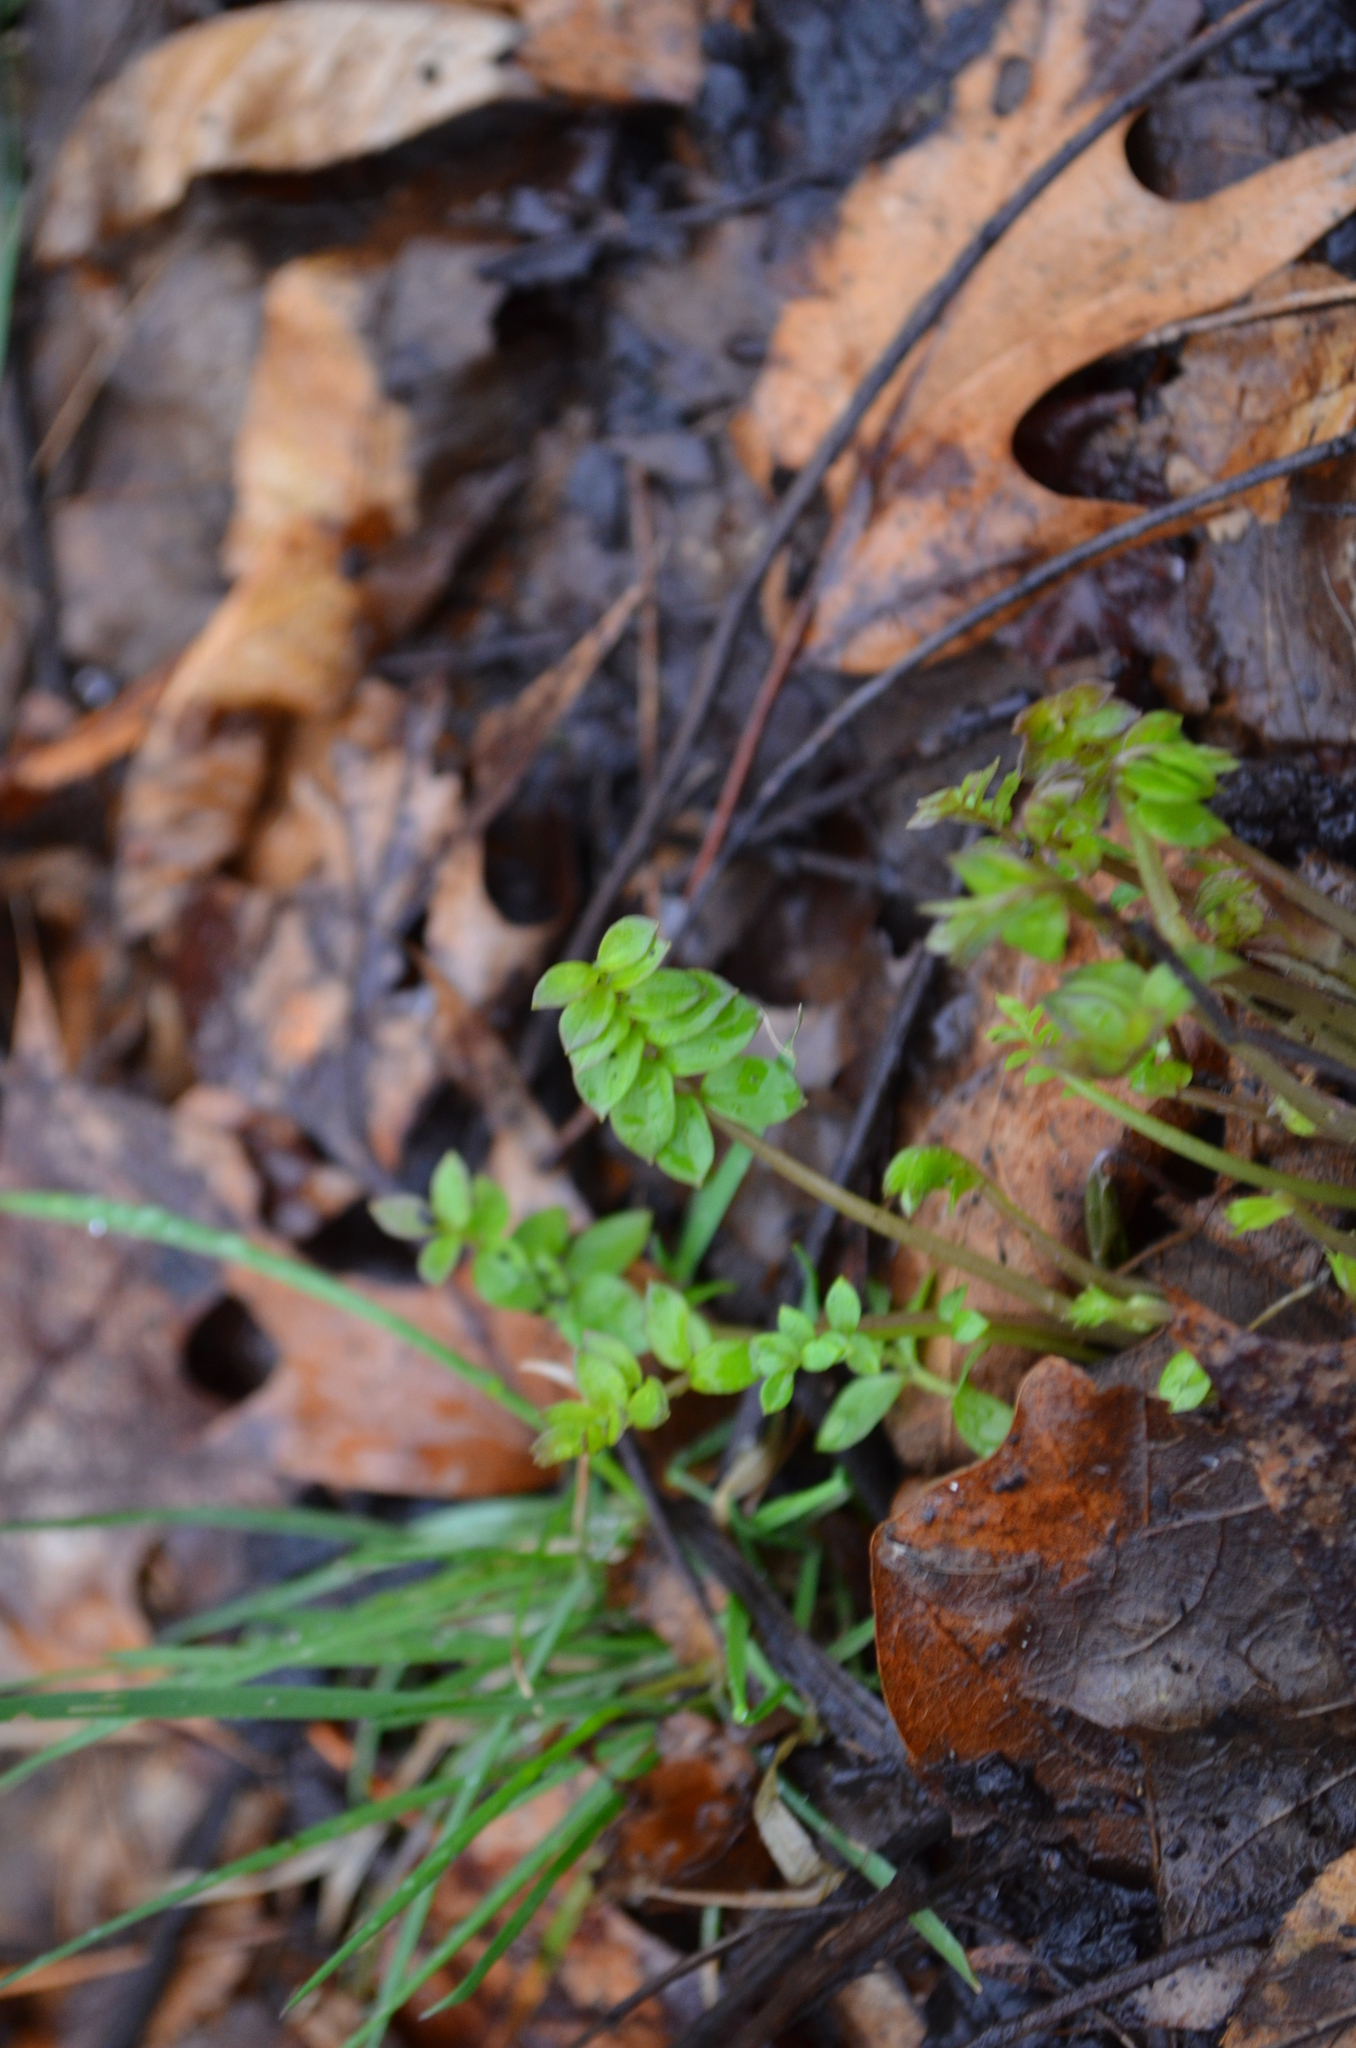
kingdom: Plantae
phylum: Tracheophyta
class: Magnoliopsida
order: Ericales
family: Polemoniaceae
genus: Polemonium
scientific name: Polemonium reptans
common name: Creeping jacob's-ladder
